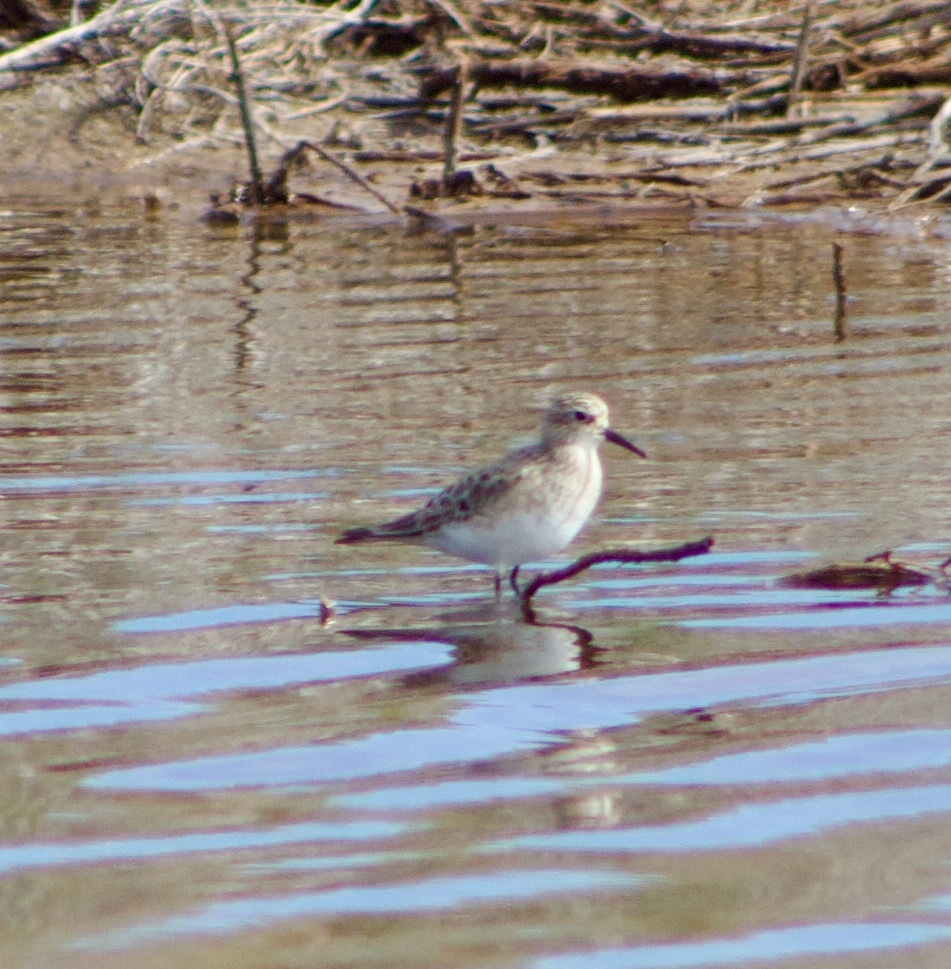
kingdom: Animalia
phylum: Chordata
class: Aves
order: Charadriiformes
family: Scolopacidae
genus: Calidris
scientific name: Calidris bairdii
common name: Baird's sandpiper
